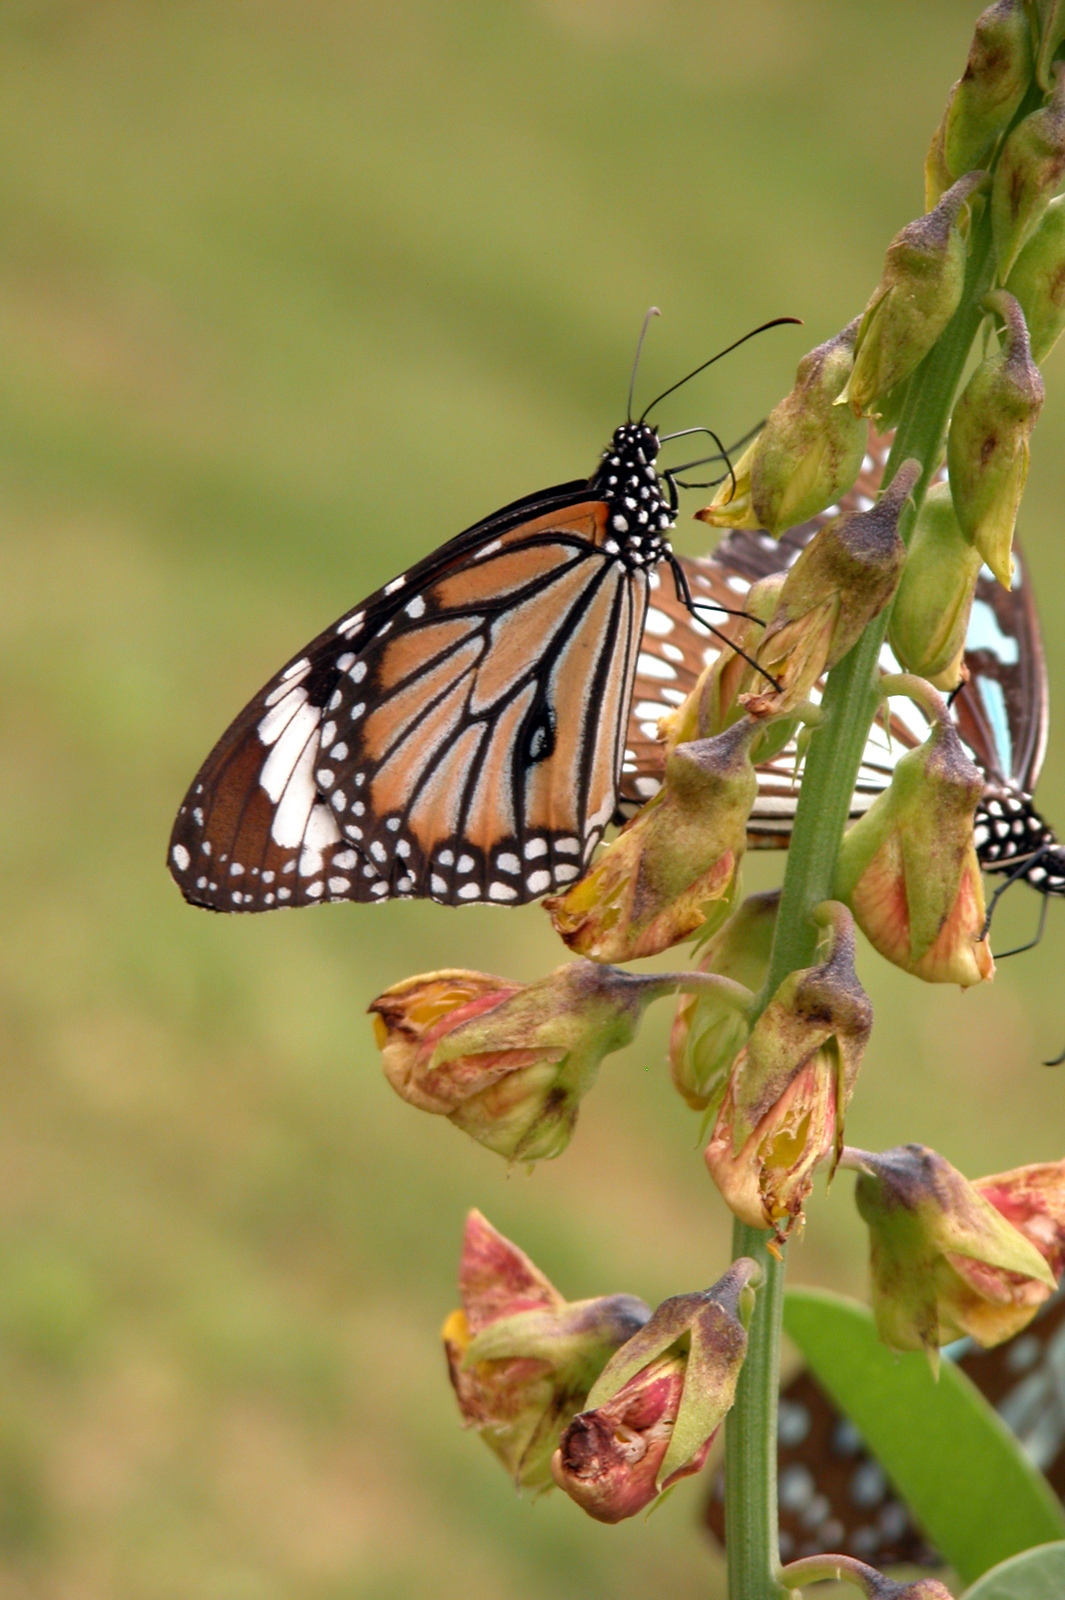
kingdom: Animalia
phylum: Arthropoda
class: Insecta
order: Lepidoptera
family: Nymphalidae
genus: Danaus
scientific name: Danaus genutia
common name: Common tiger butterfly
